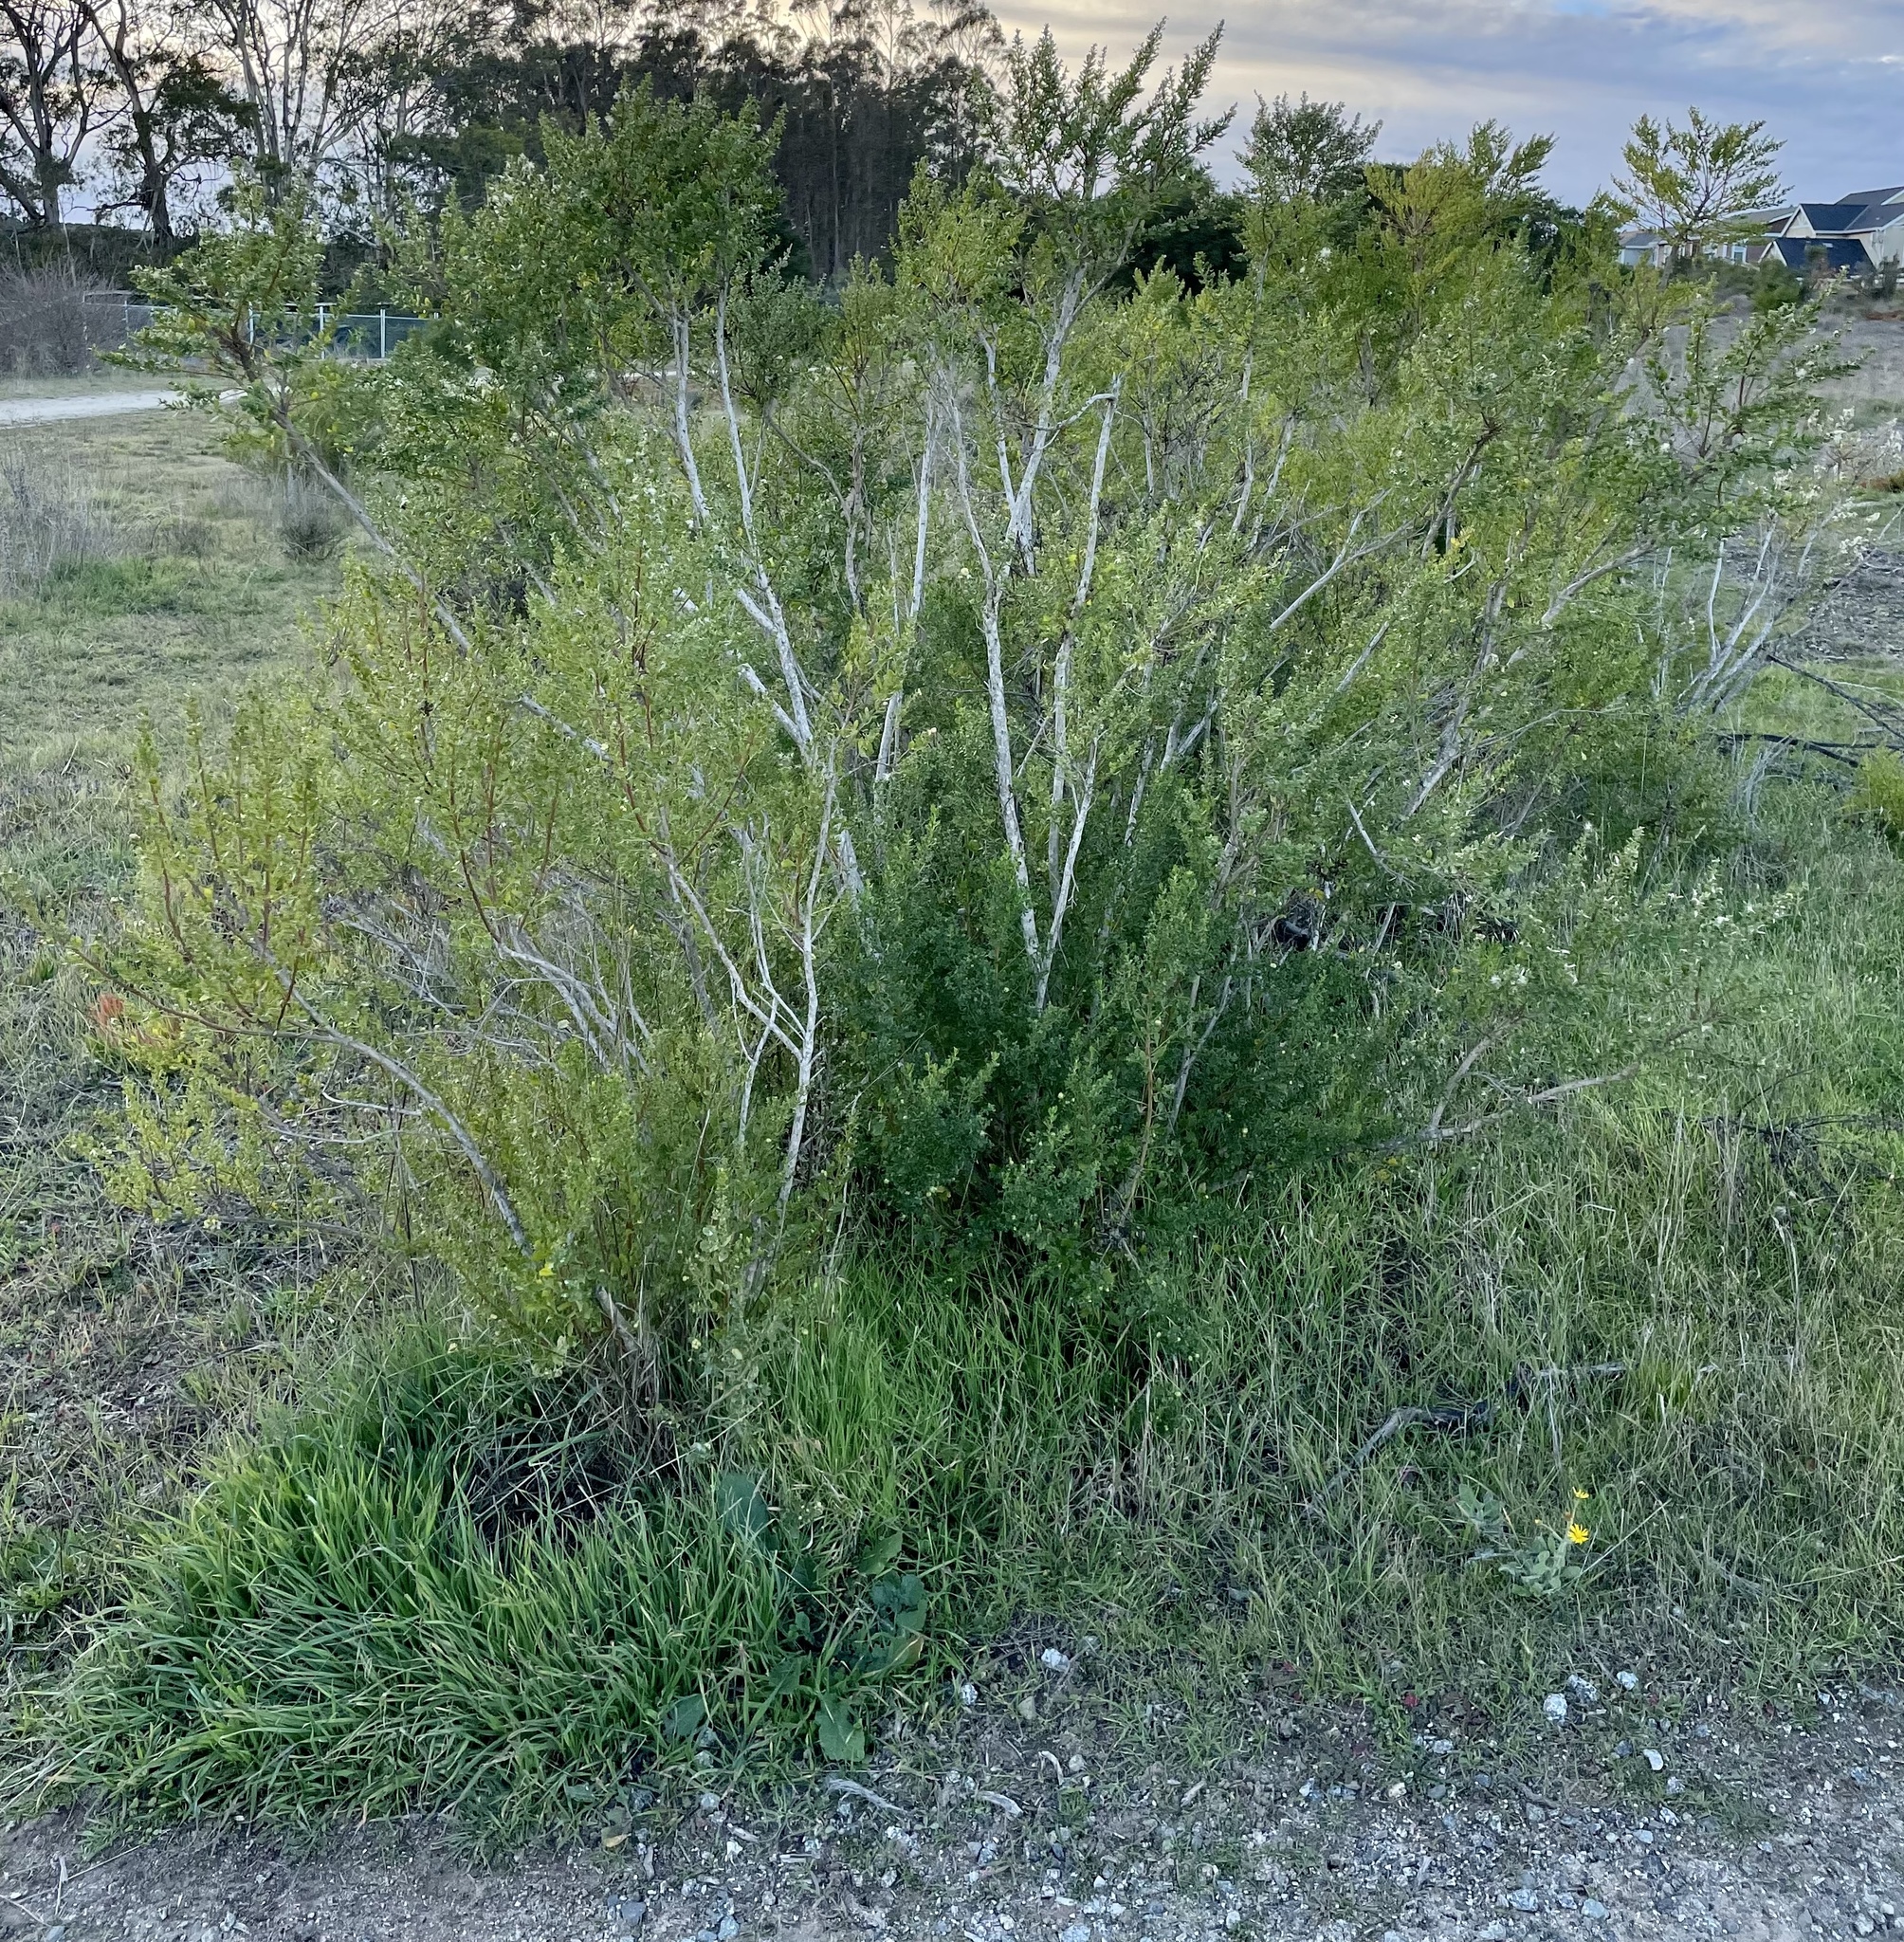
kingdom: Plantae
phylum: Tracheophyta
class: Magnoliopsida
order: Asterales
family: Asteraceae
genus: Baccharis
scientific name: Baccharis pilularis
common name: Coyotebrush
